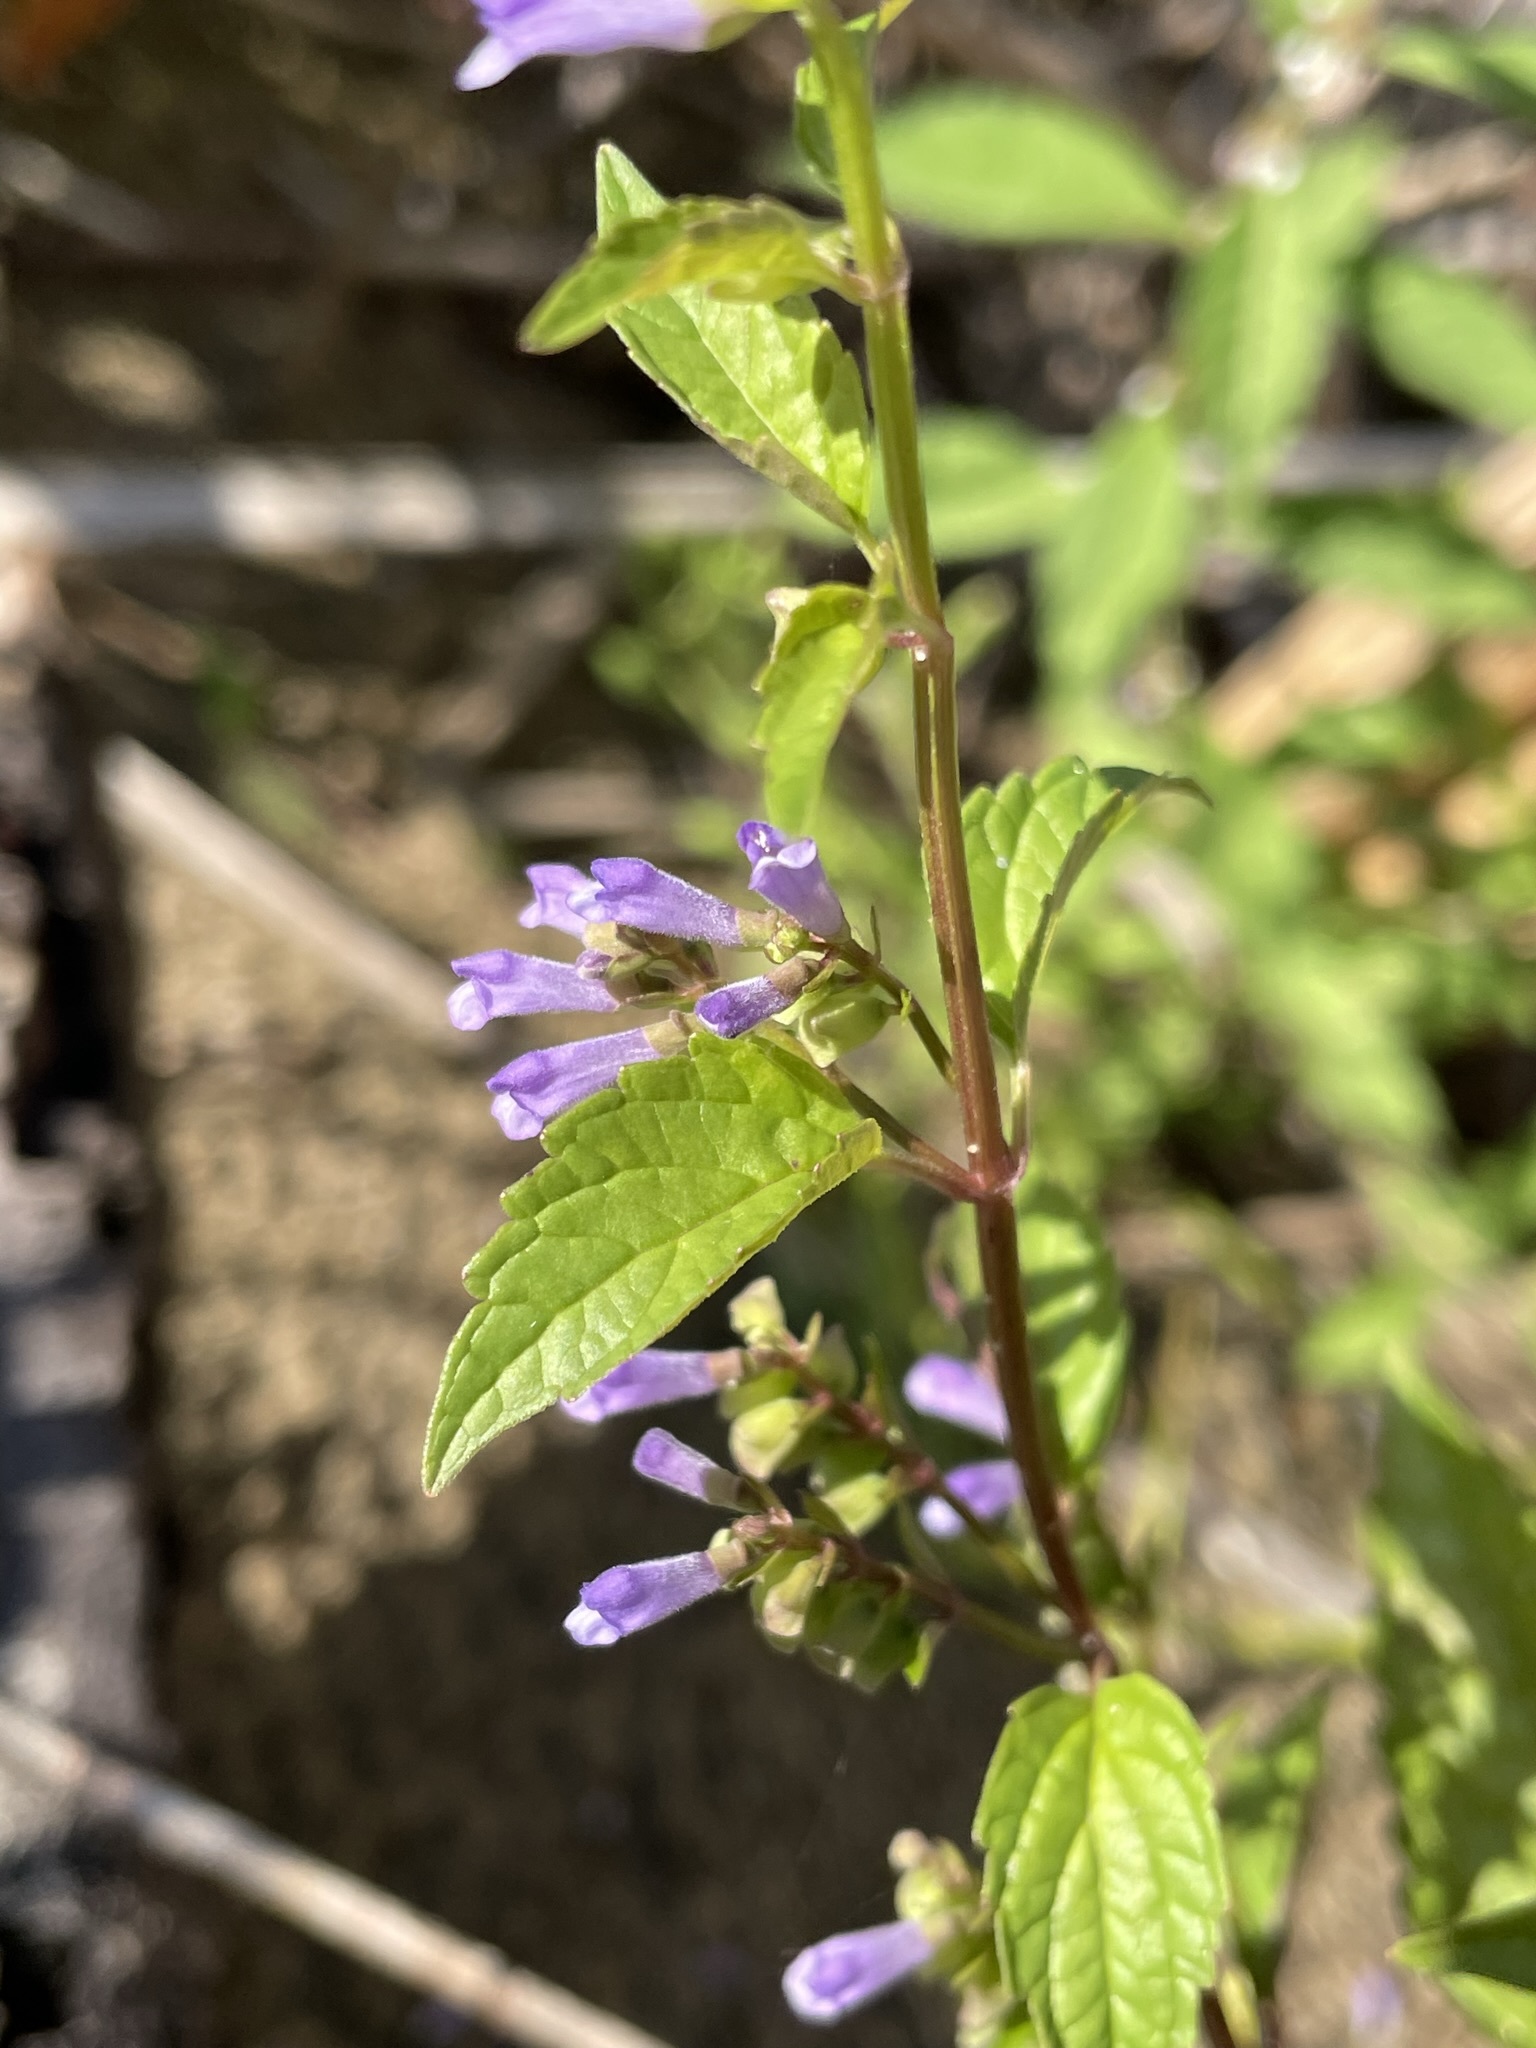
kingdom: Plantae
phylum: Tracheophyta
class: Magnoliopsida
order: Lamiales
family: Lamiaceae
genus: Scutellaria
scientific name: Scutellaria lateriflora
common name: Blue skullcap
